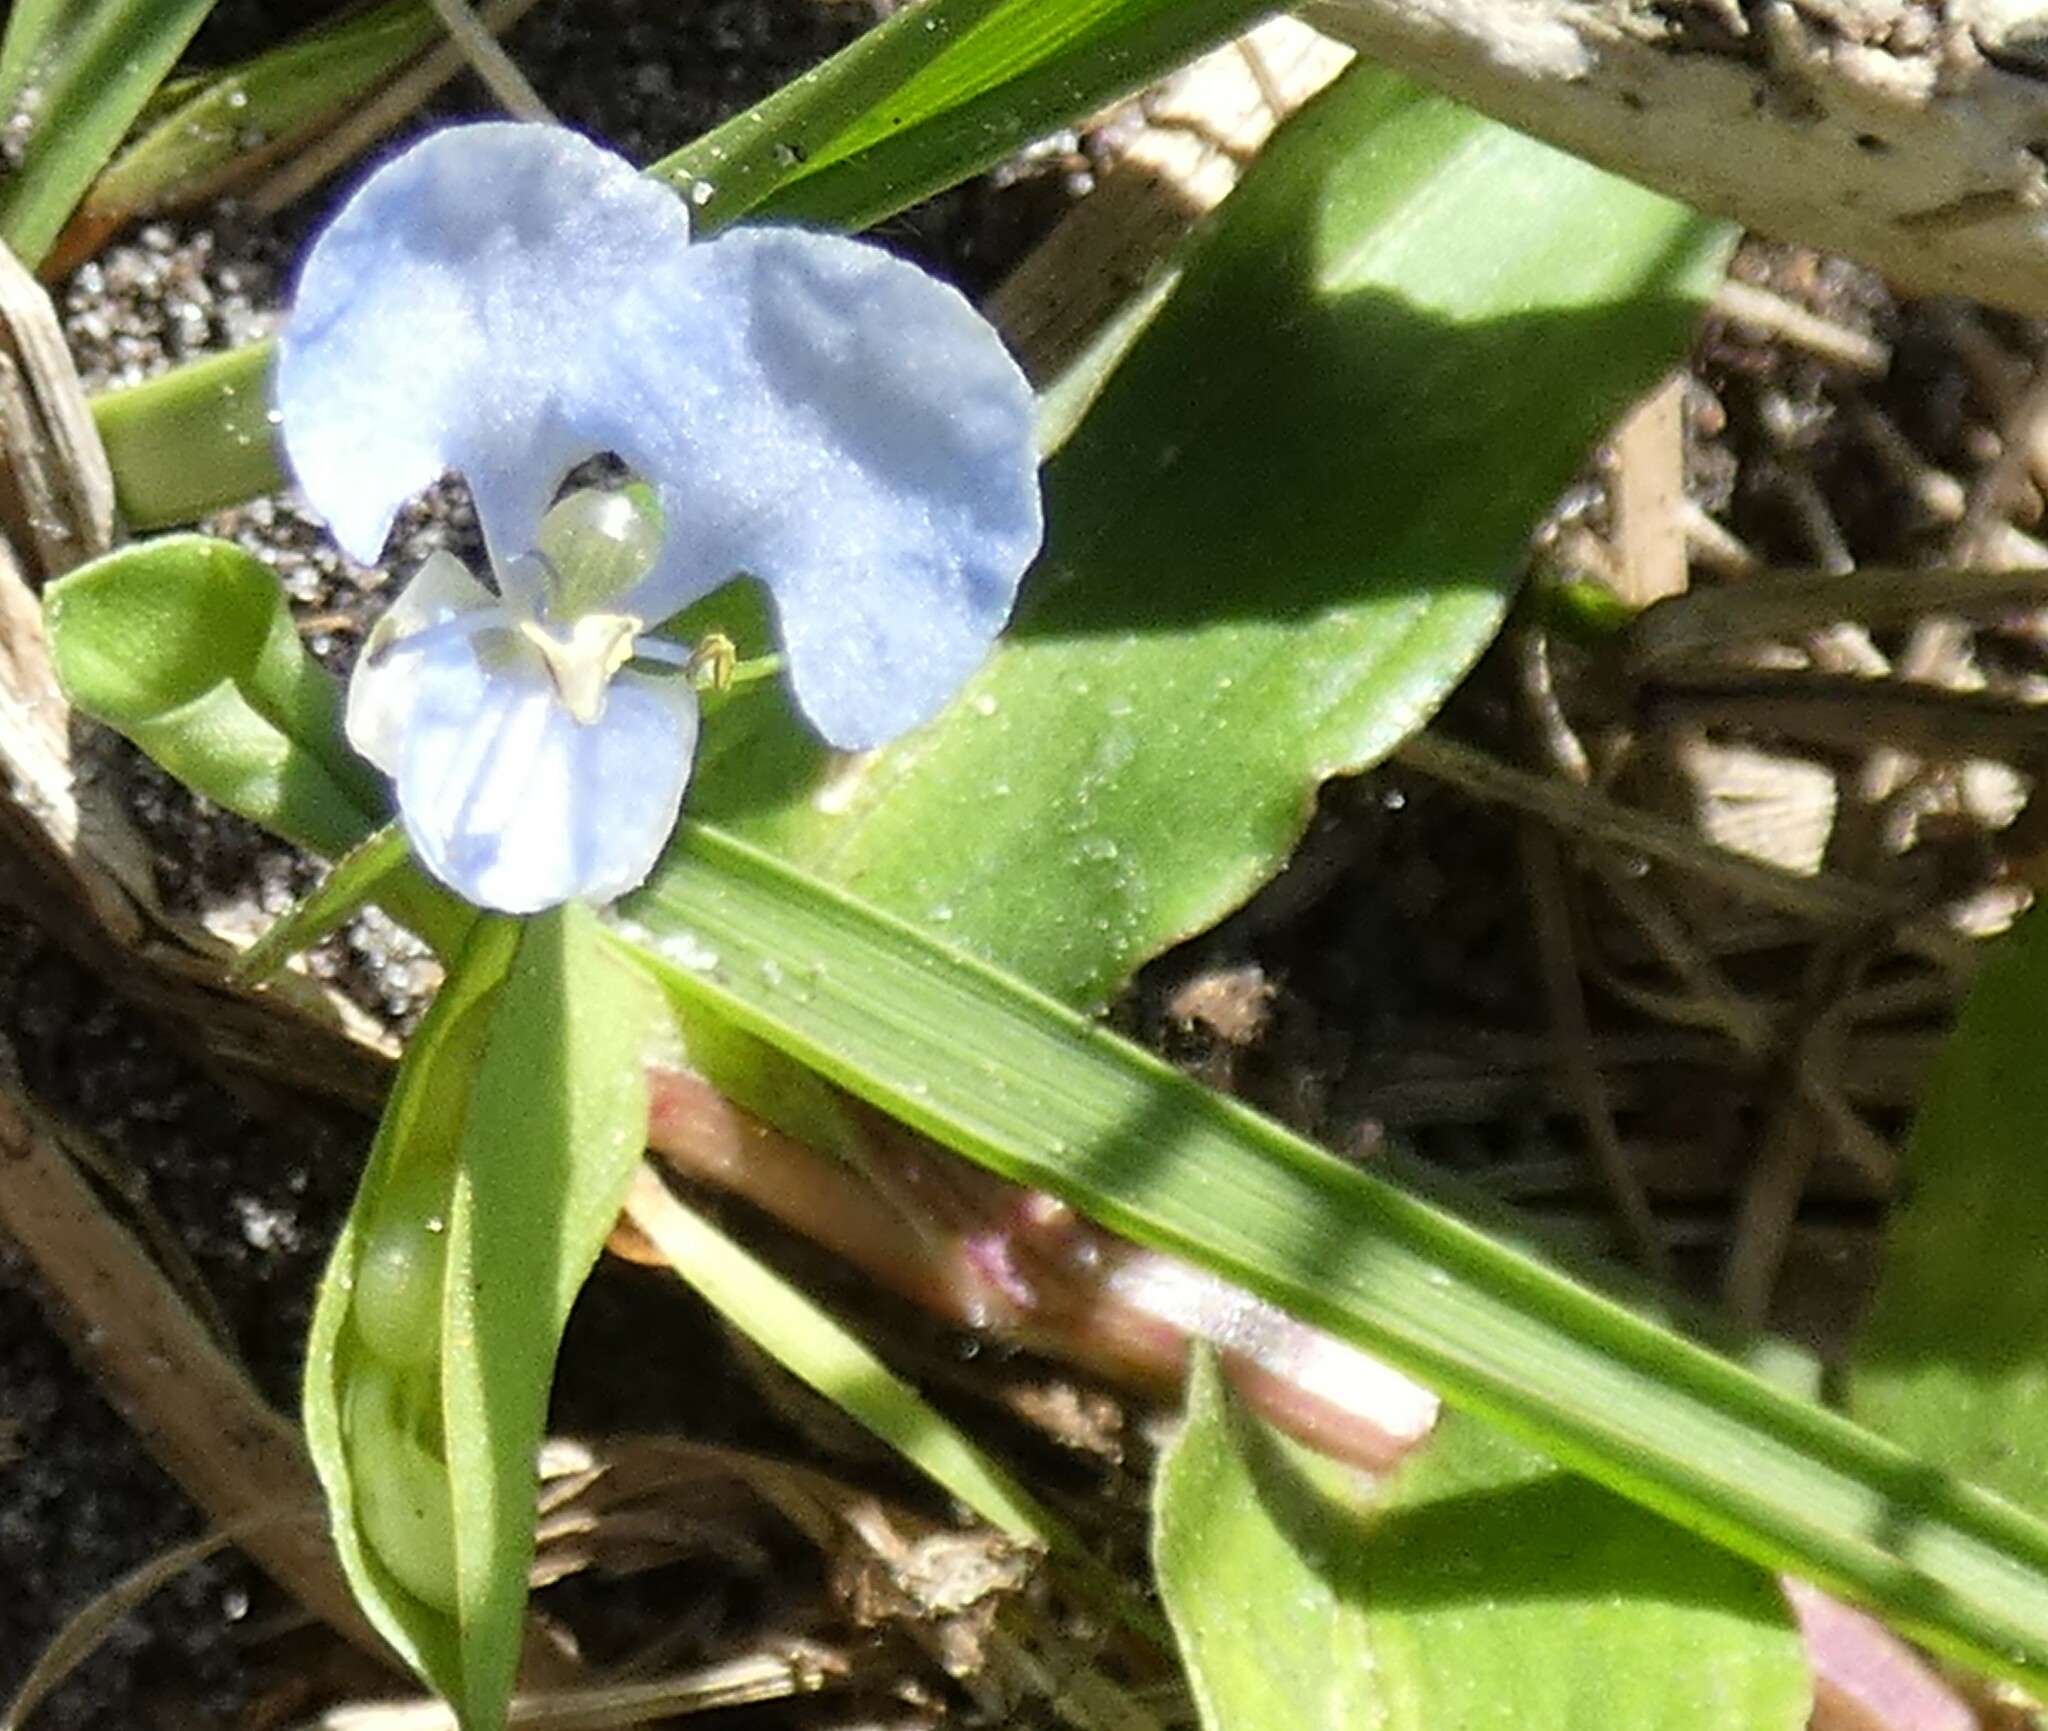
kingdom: Plantae
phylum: Tracheophyta
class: Liliopsida
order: Commelinales
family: Commelinaceae
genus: Commelina
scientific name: Commelina diffusa
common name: Climbing dayflower
